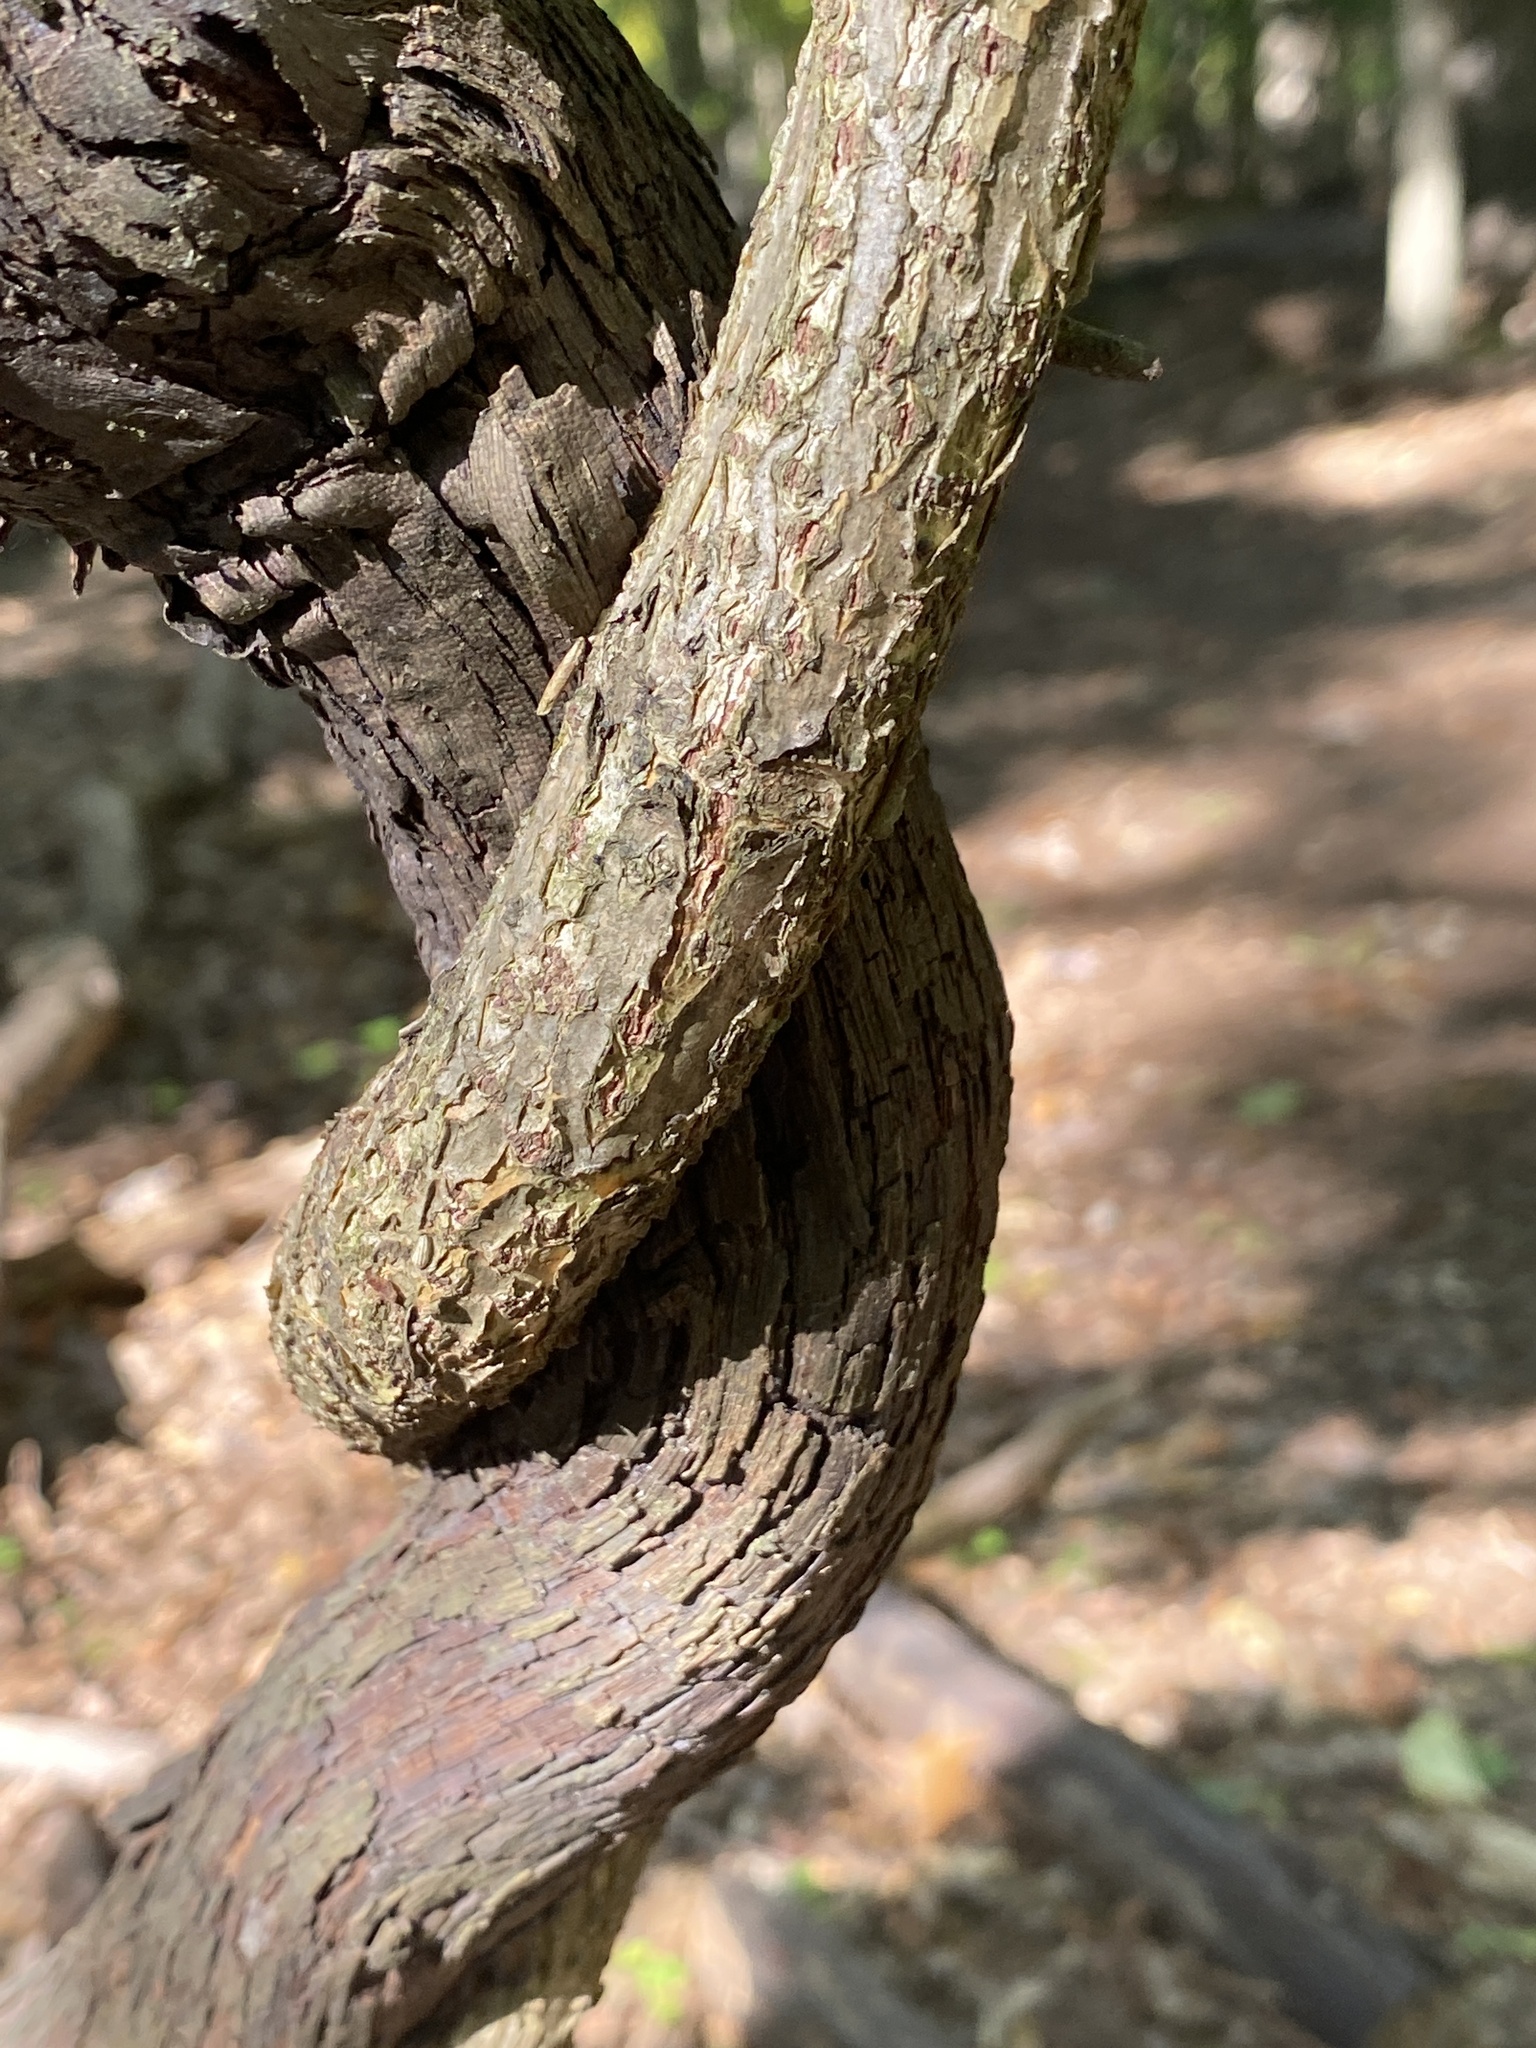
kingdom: Plantae
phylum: Tracheophyta
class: Magnoliopsida
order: Celastrales
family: Celastraceae
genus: Celastrus
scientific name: Celastrus orbiculatus
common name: Oriental bittersweet
